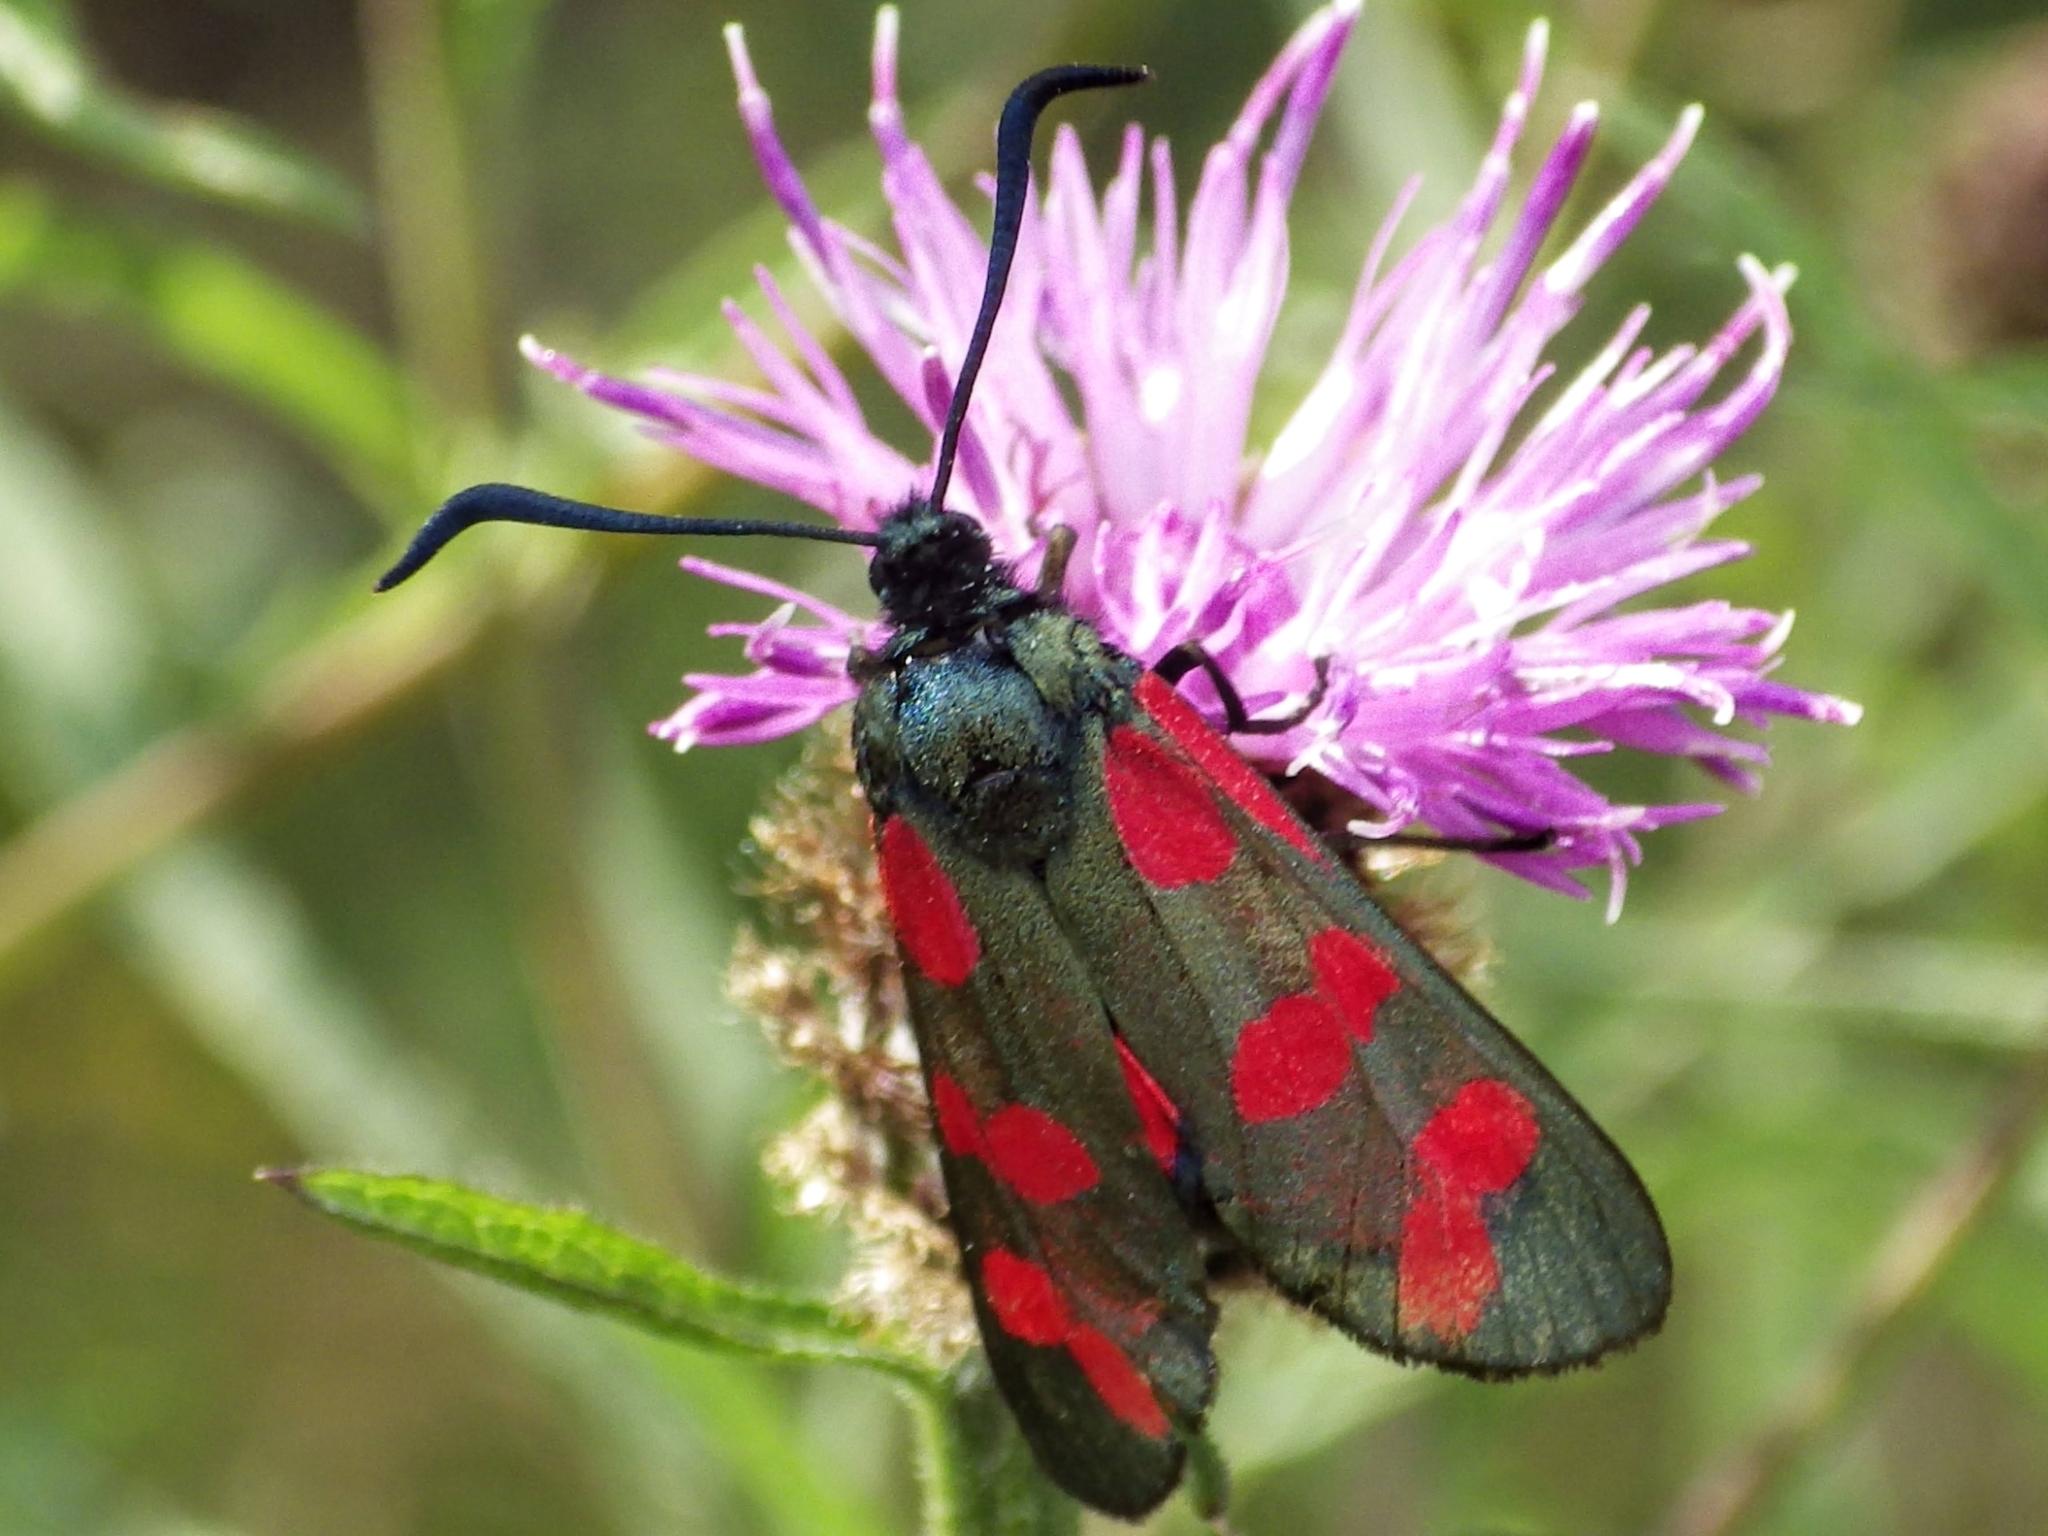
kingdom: Animalia
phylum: Arthropoda
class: Insecta
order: Lepidoptera
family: Zygaenidae
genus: Zygaena
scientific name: Zygaena filipendulae
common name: Six-spot burnet
